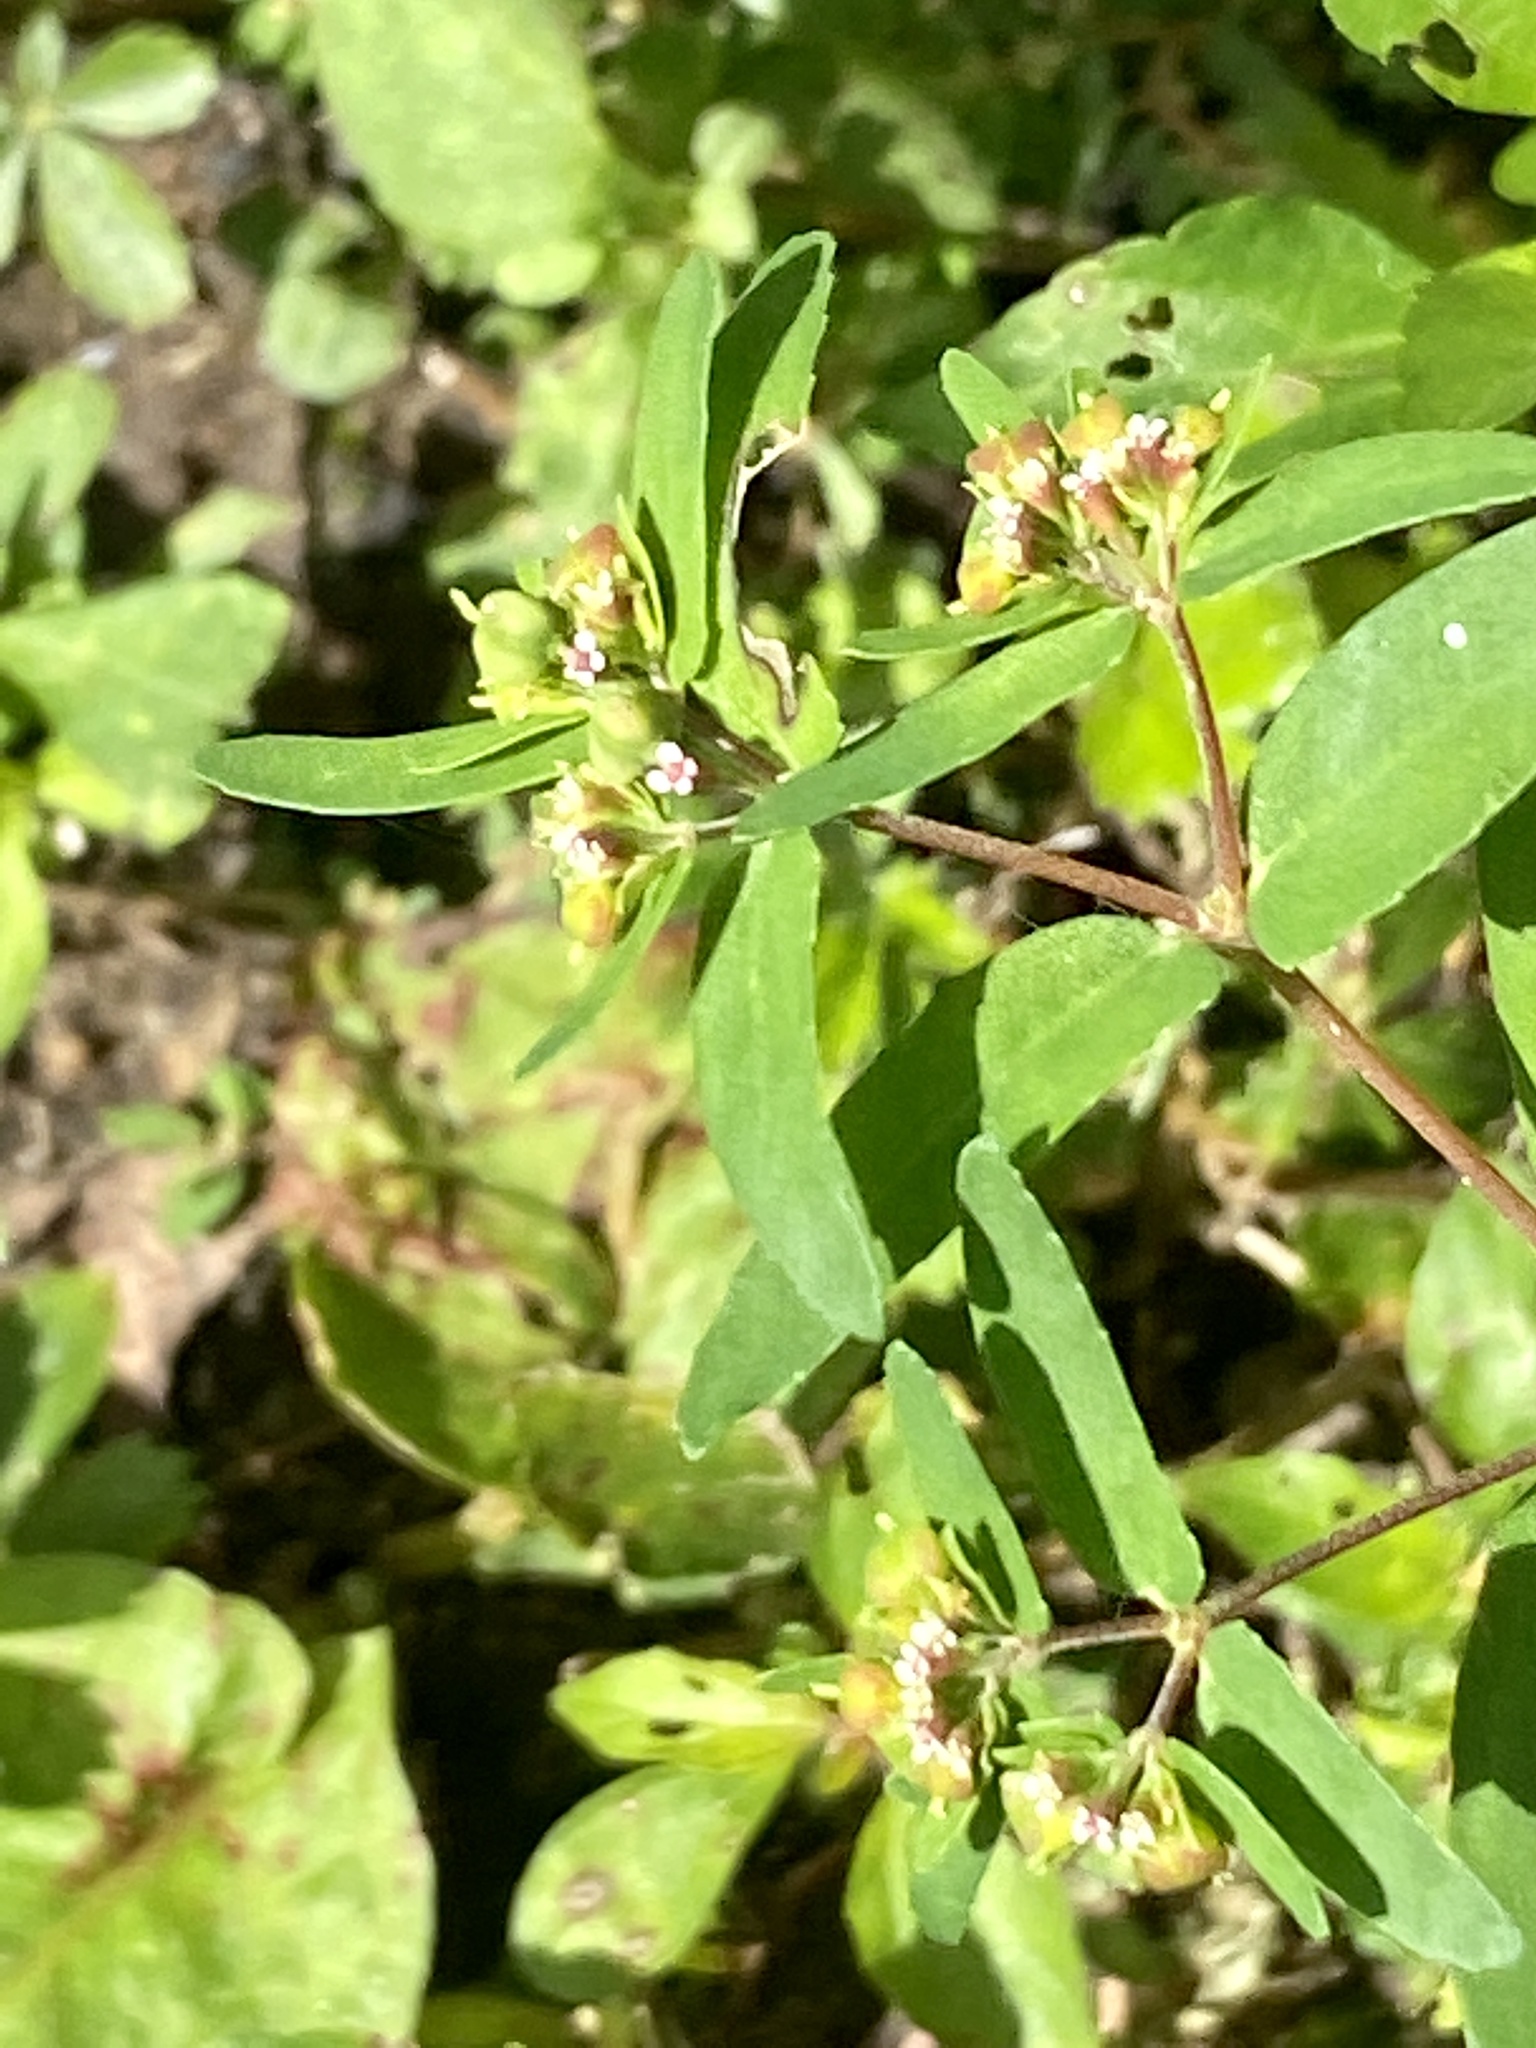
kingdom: Plantae
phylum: Tracheophyta
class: Magnoliopsida
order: Malpighiales
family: Euphorbiaceae
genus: Euphorbia
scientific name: Euphorbia nutans
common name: Eyebane
